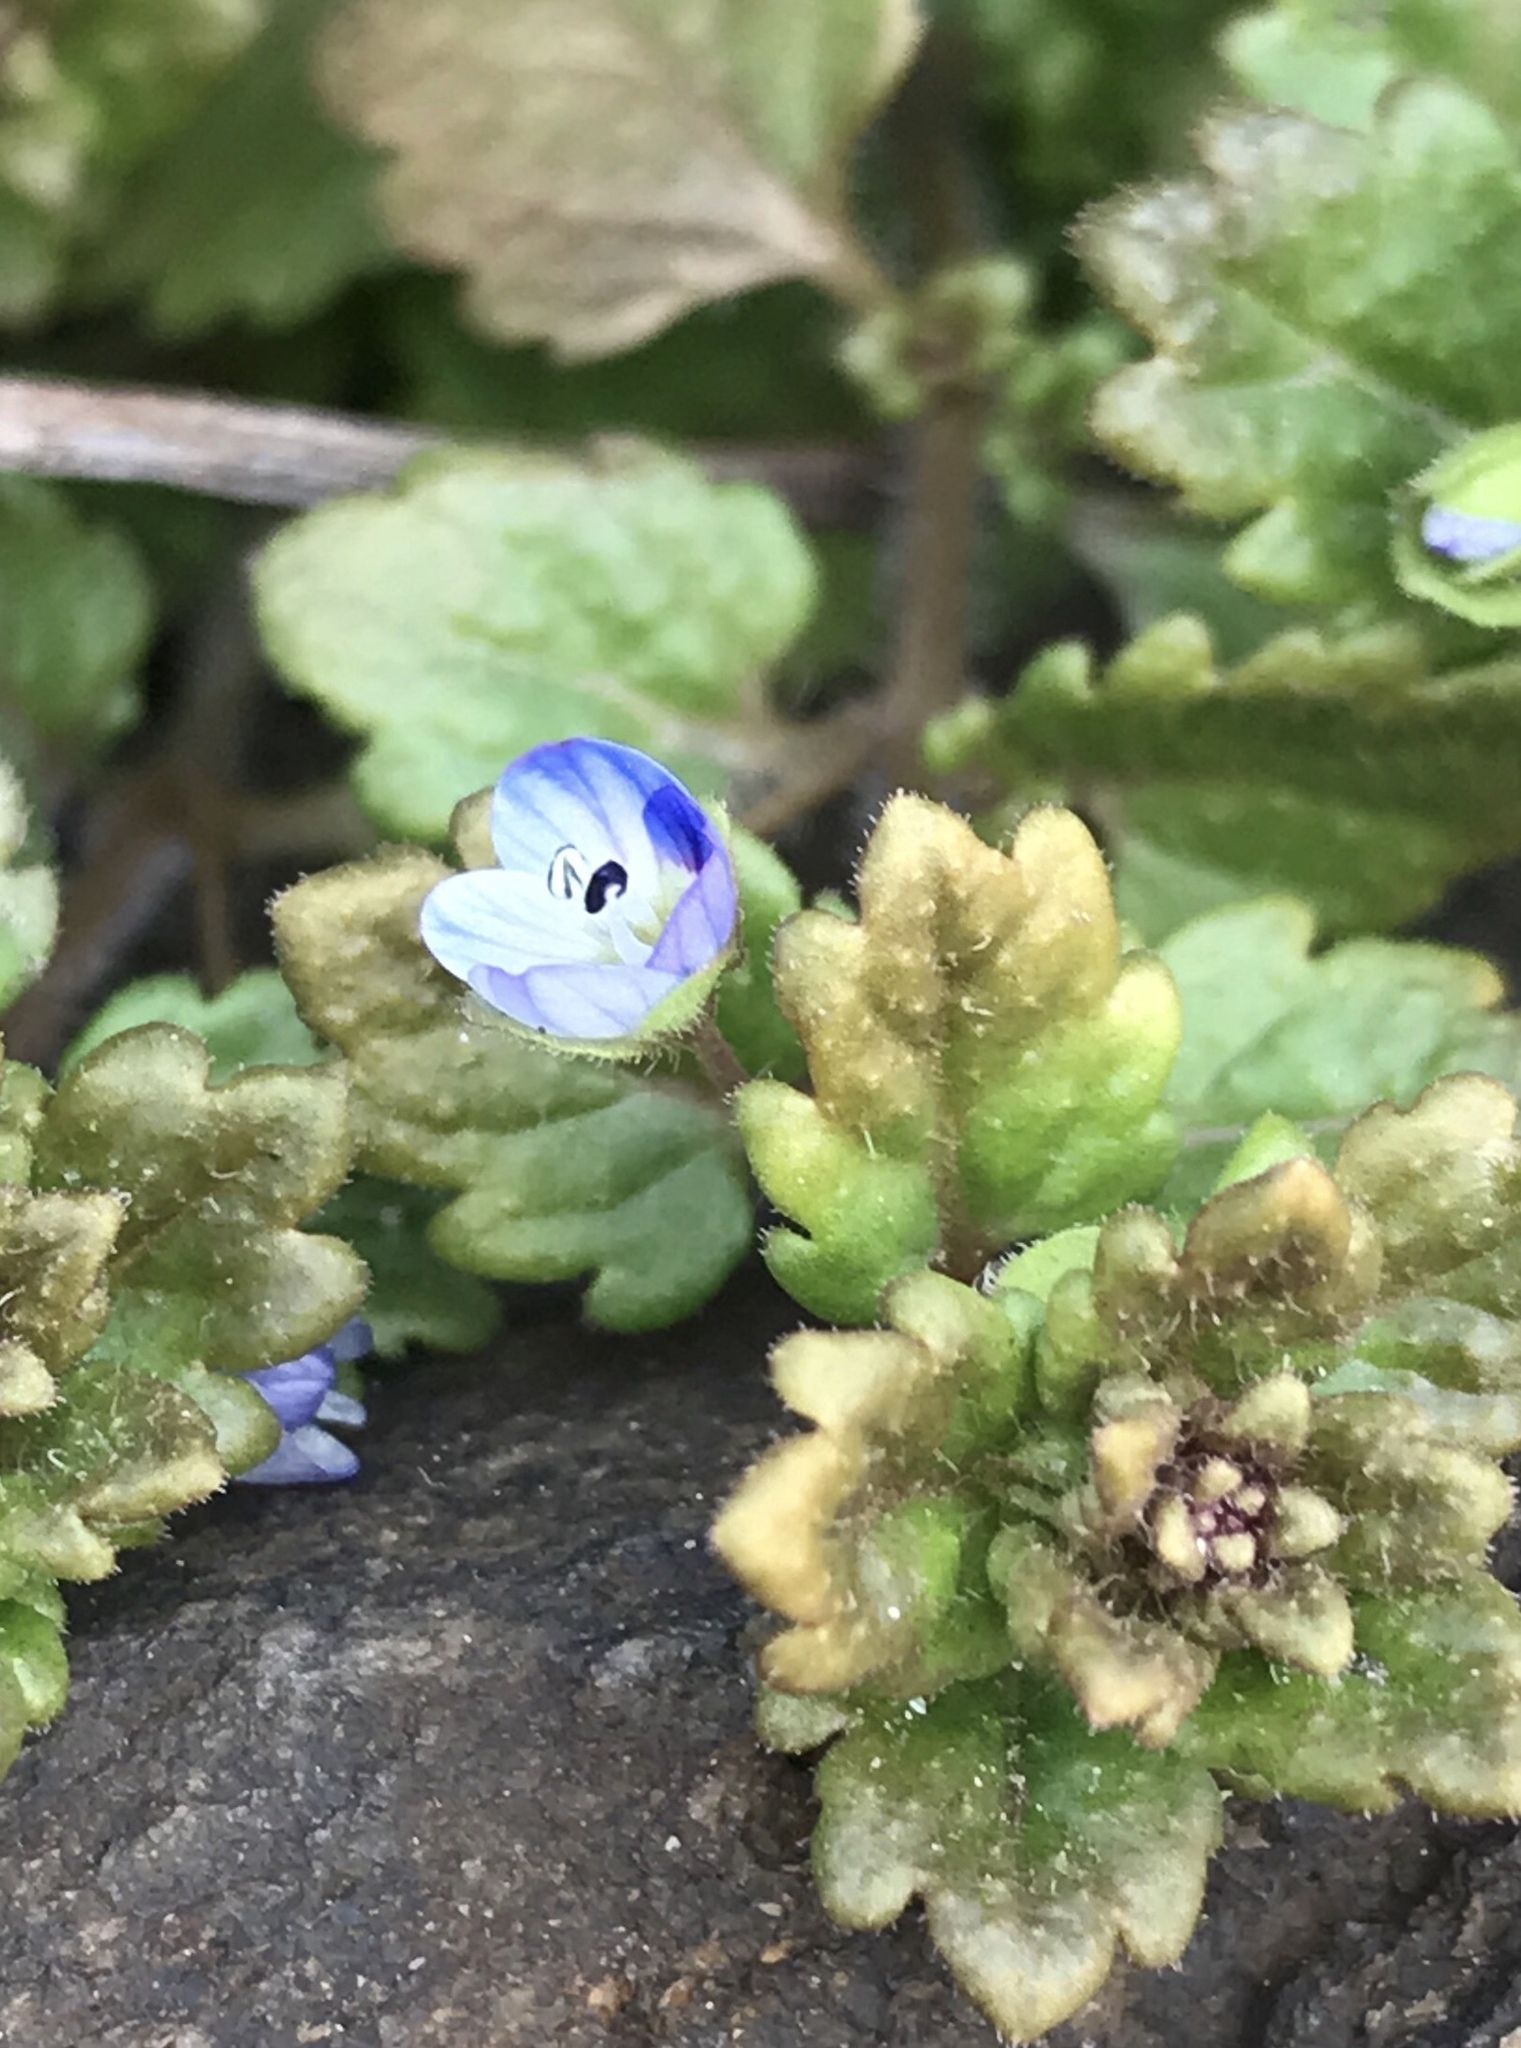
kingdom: Plantae
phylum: Tracheophyta
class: Magnoliopsida
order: Lamiales
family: Plantaginaceae
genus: Veronica
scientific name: Veronica polita
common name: Grey field-speedwell
